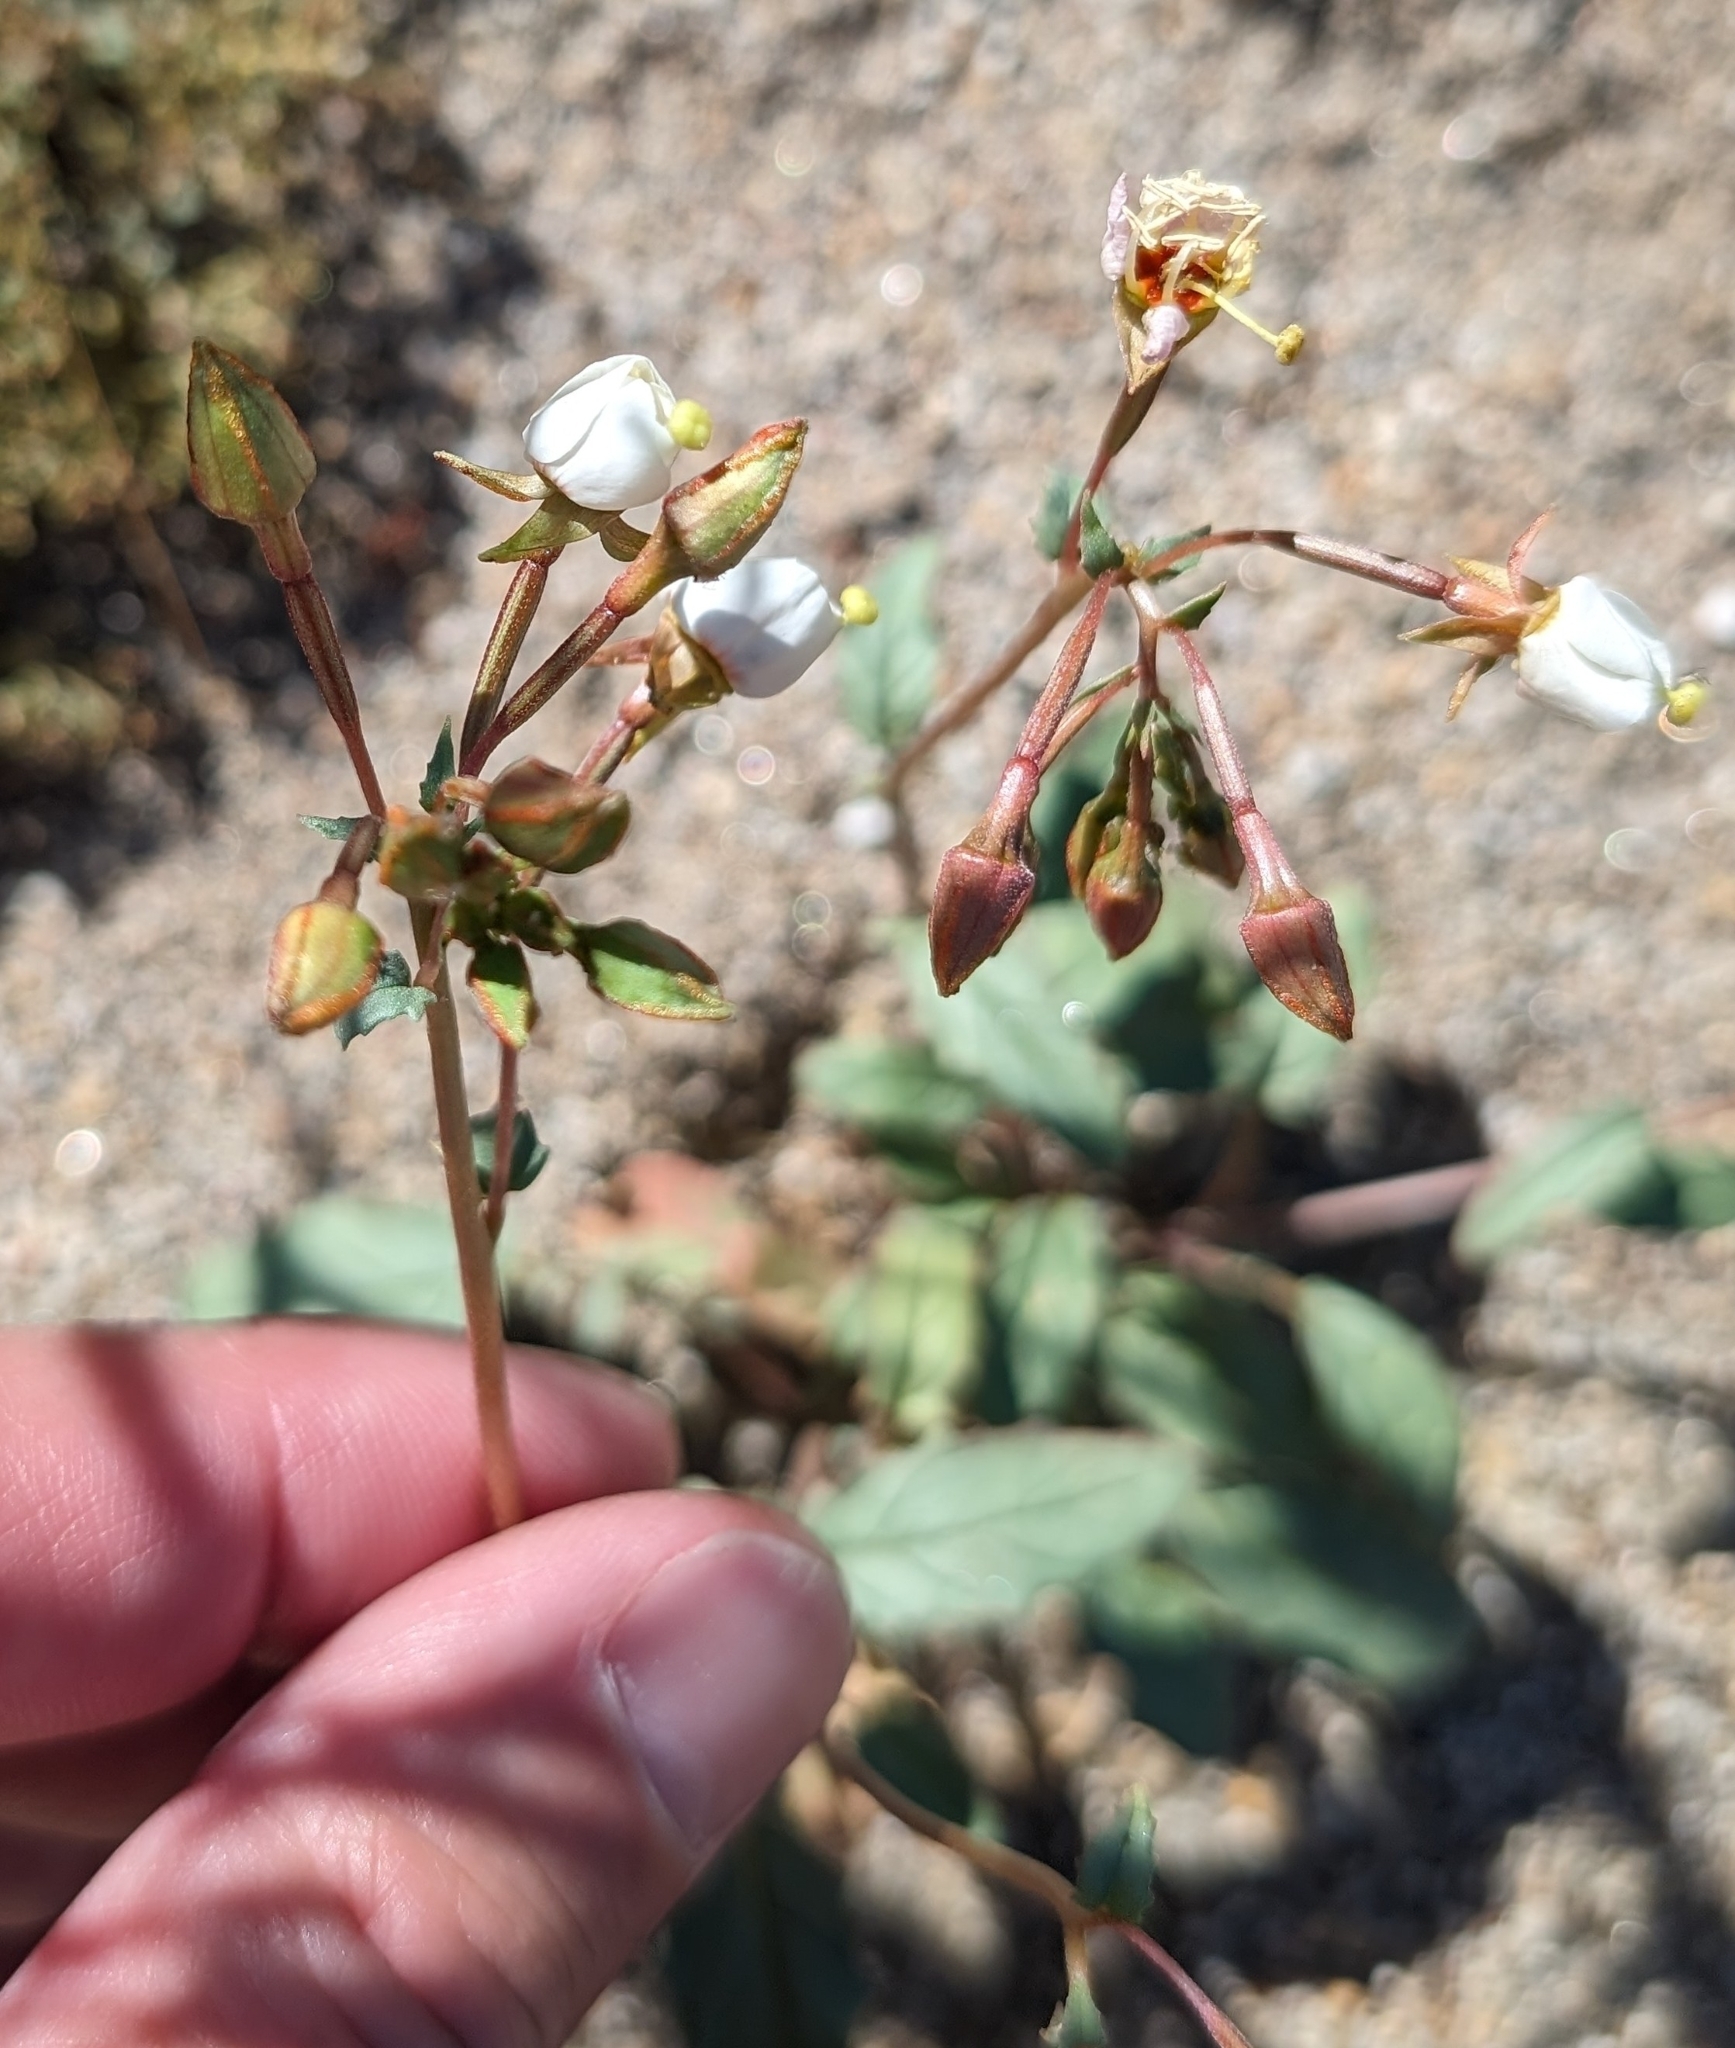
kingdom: Plantae
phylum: Tracheophyta
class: Magnoliopsida
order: Myrtales
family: Onagraceae
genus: Chylismia
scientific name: Chylismia claviformis
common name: Browneyes
